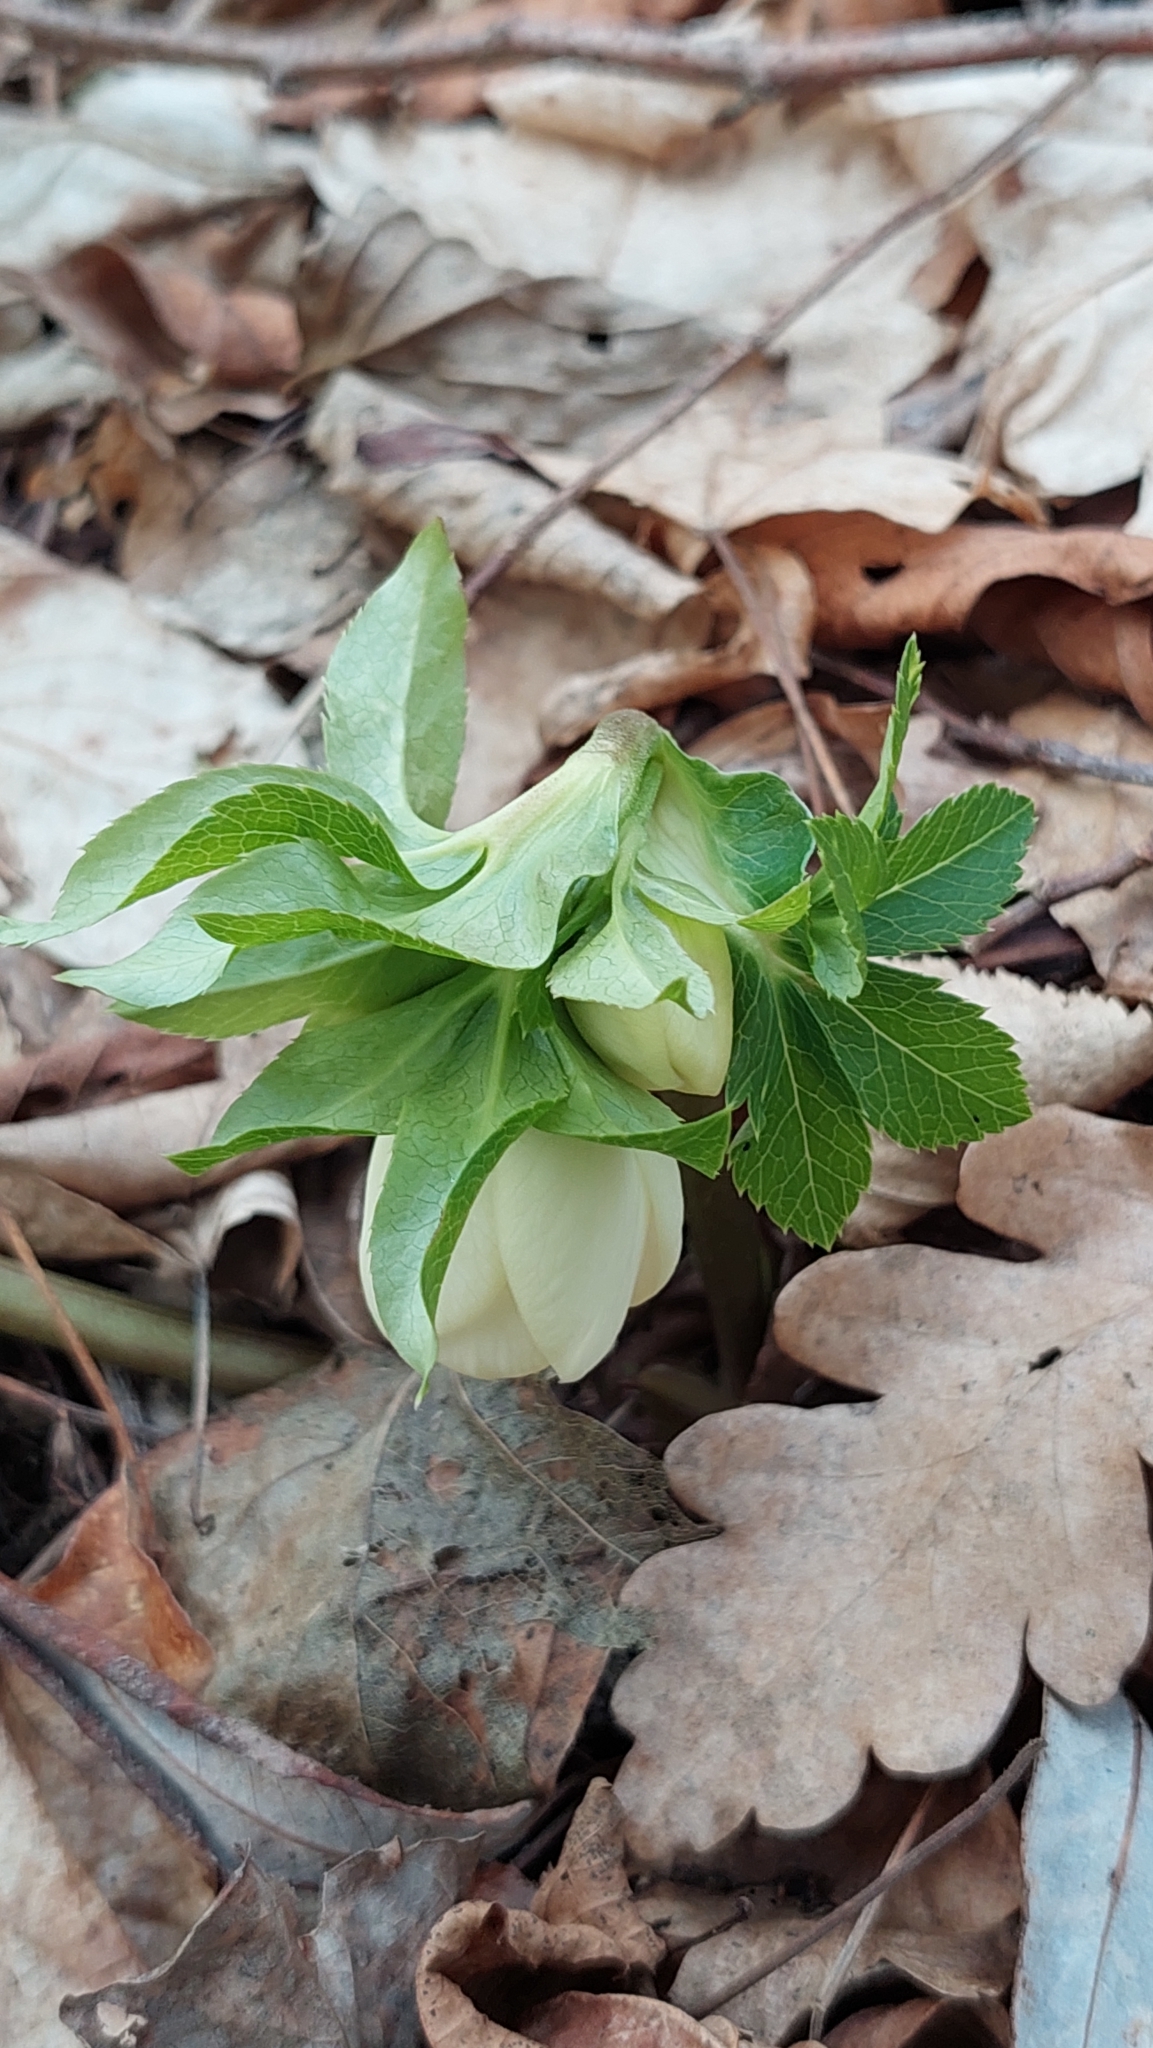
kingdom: Plantae
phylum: Tracheophyta
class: Magnoliopsida
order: Ranunculales
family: Ranunculaceae
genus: Helleborus
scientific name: Helleborus orientalis
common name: Lenten-rose
